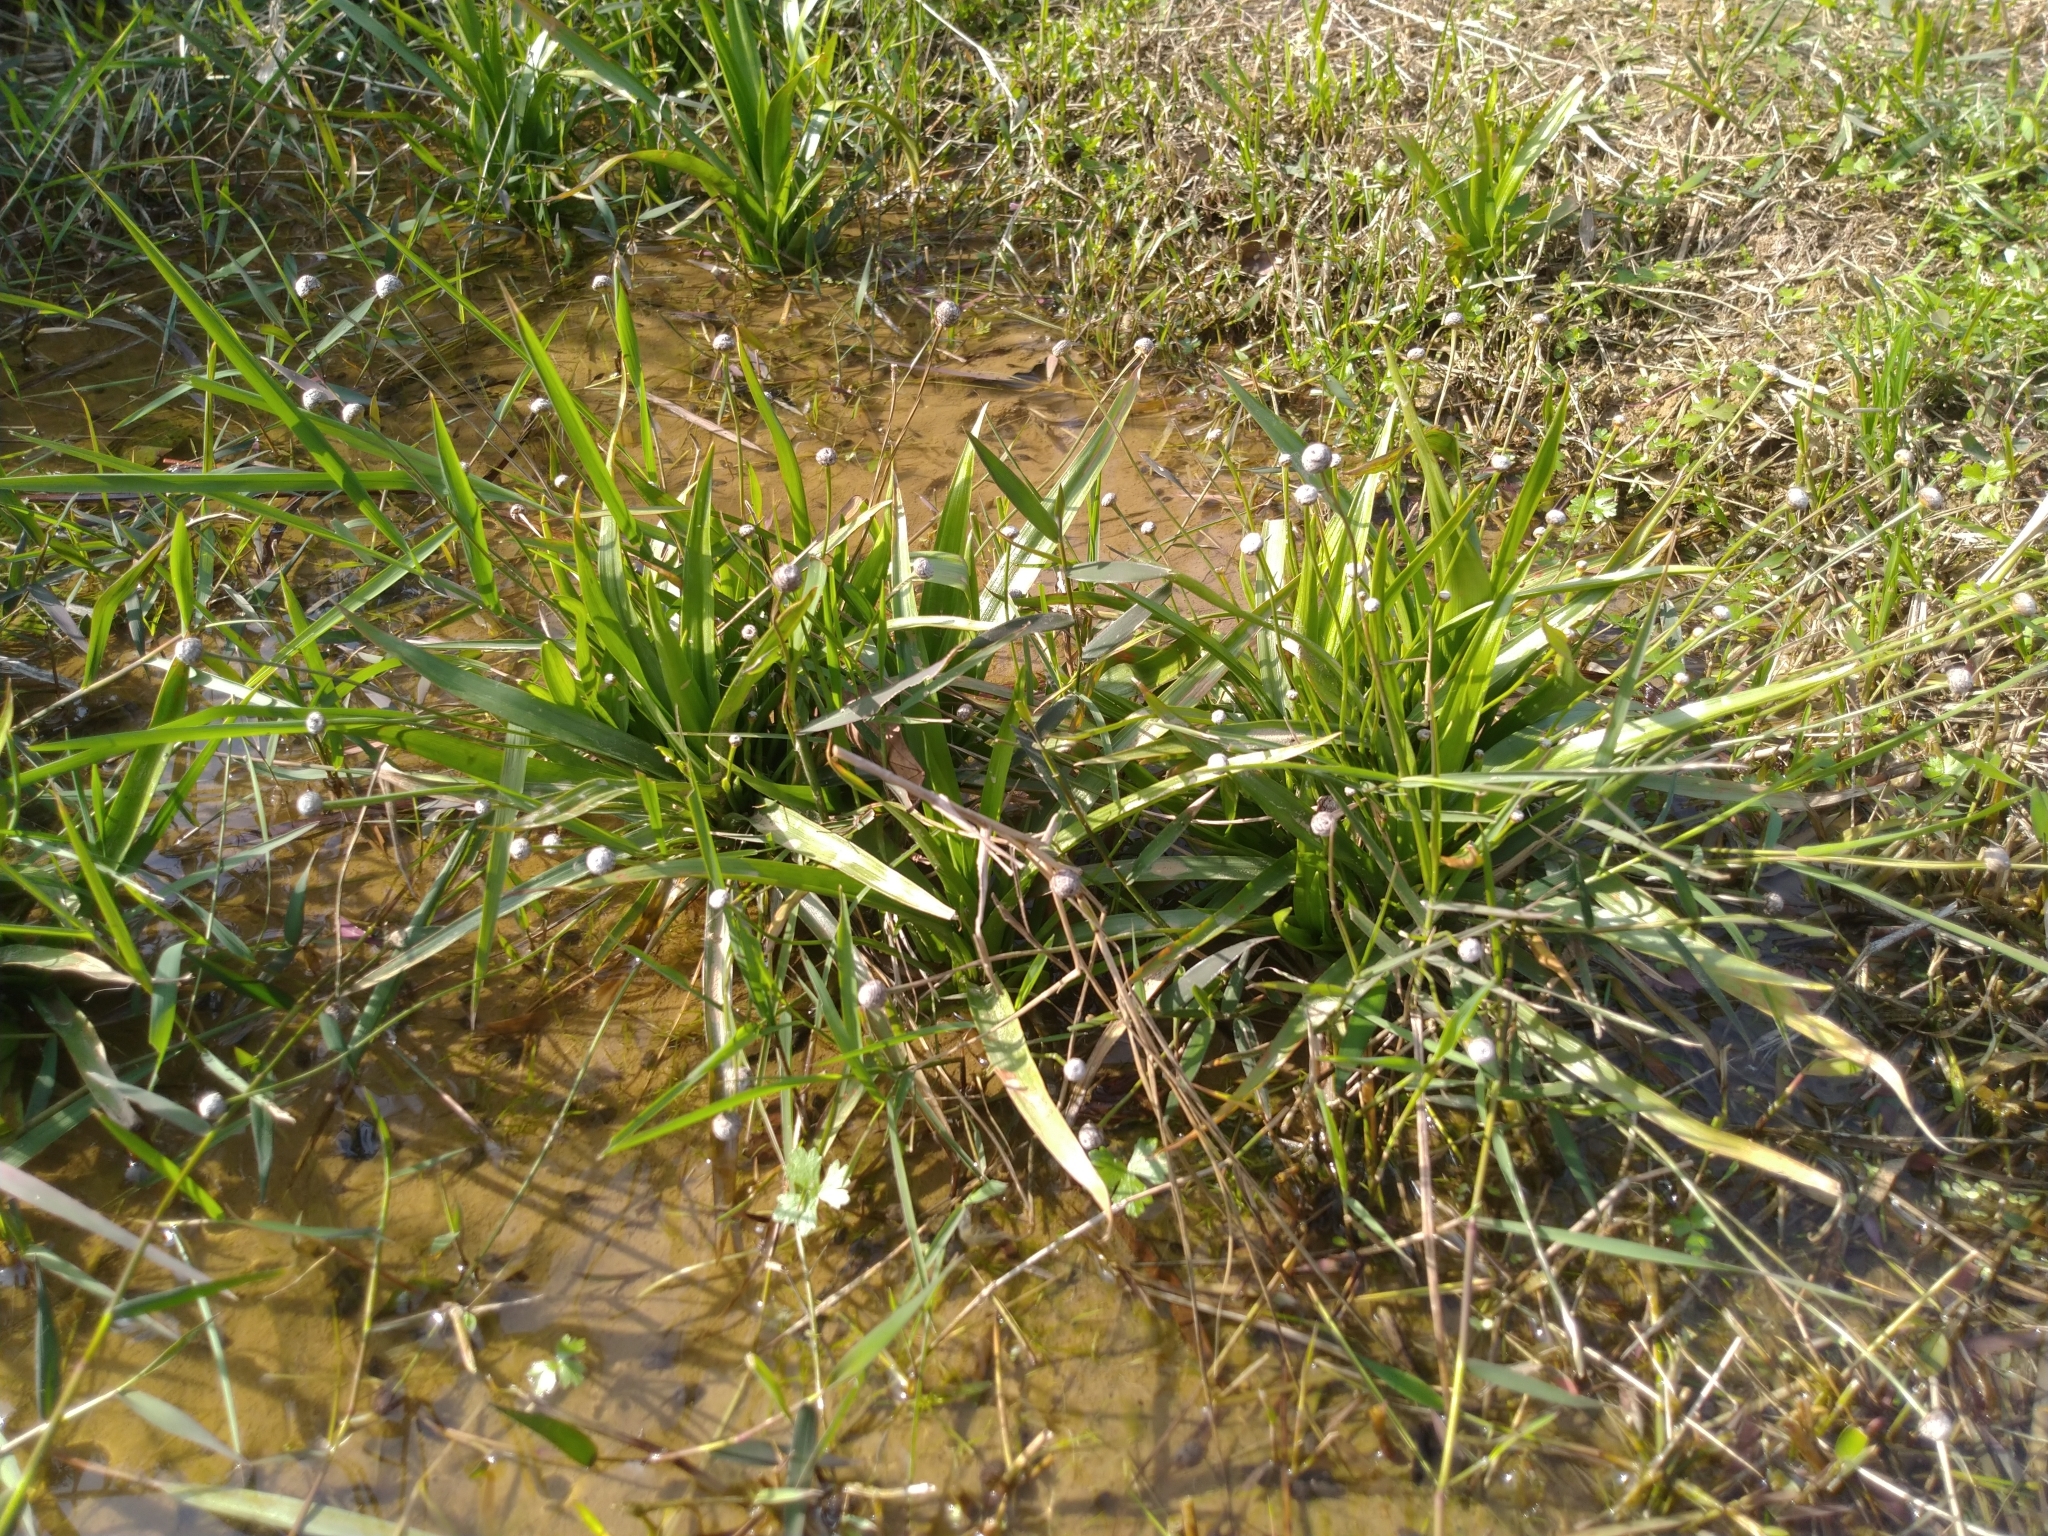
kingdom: Plantae
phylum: Tracheophyta
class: Liliopsida
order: Poales
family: Eriocaulaceae
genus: Eriocaulon
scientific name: Eriocaulon sexangulare
